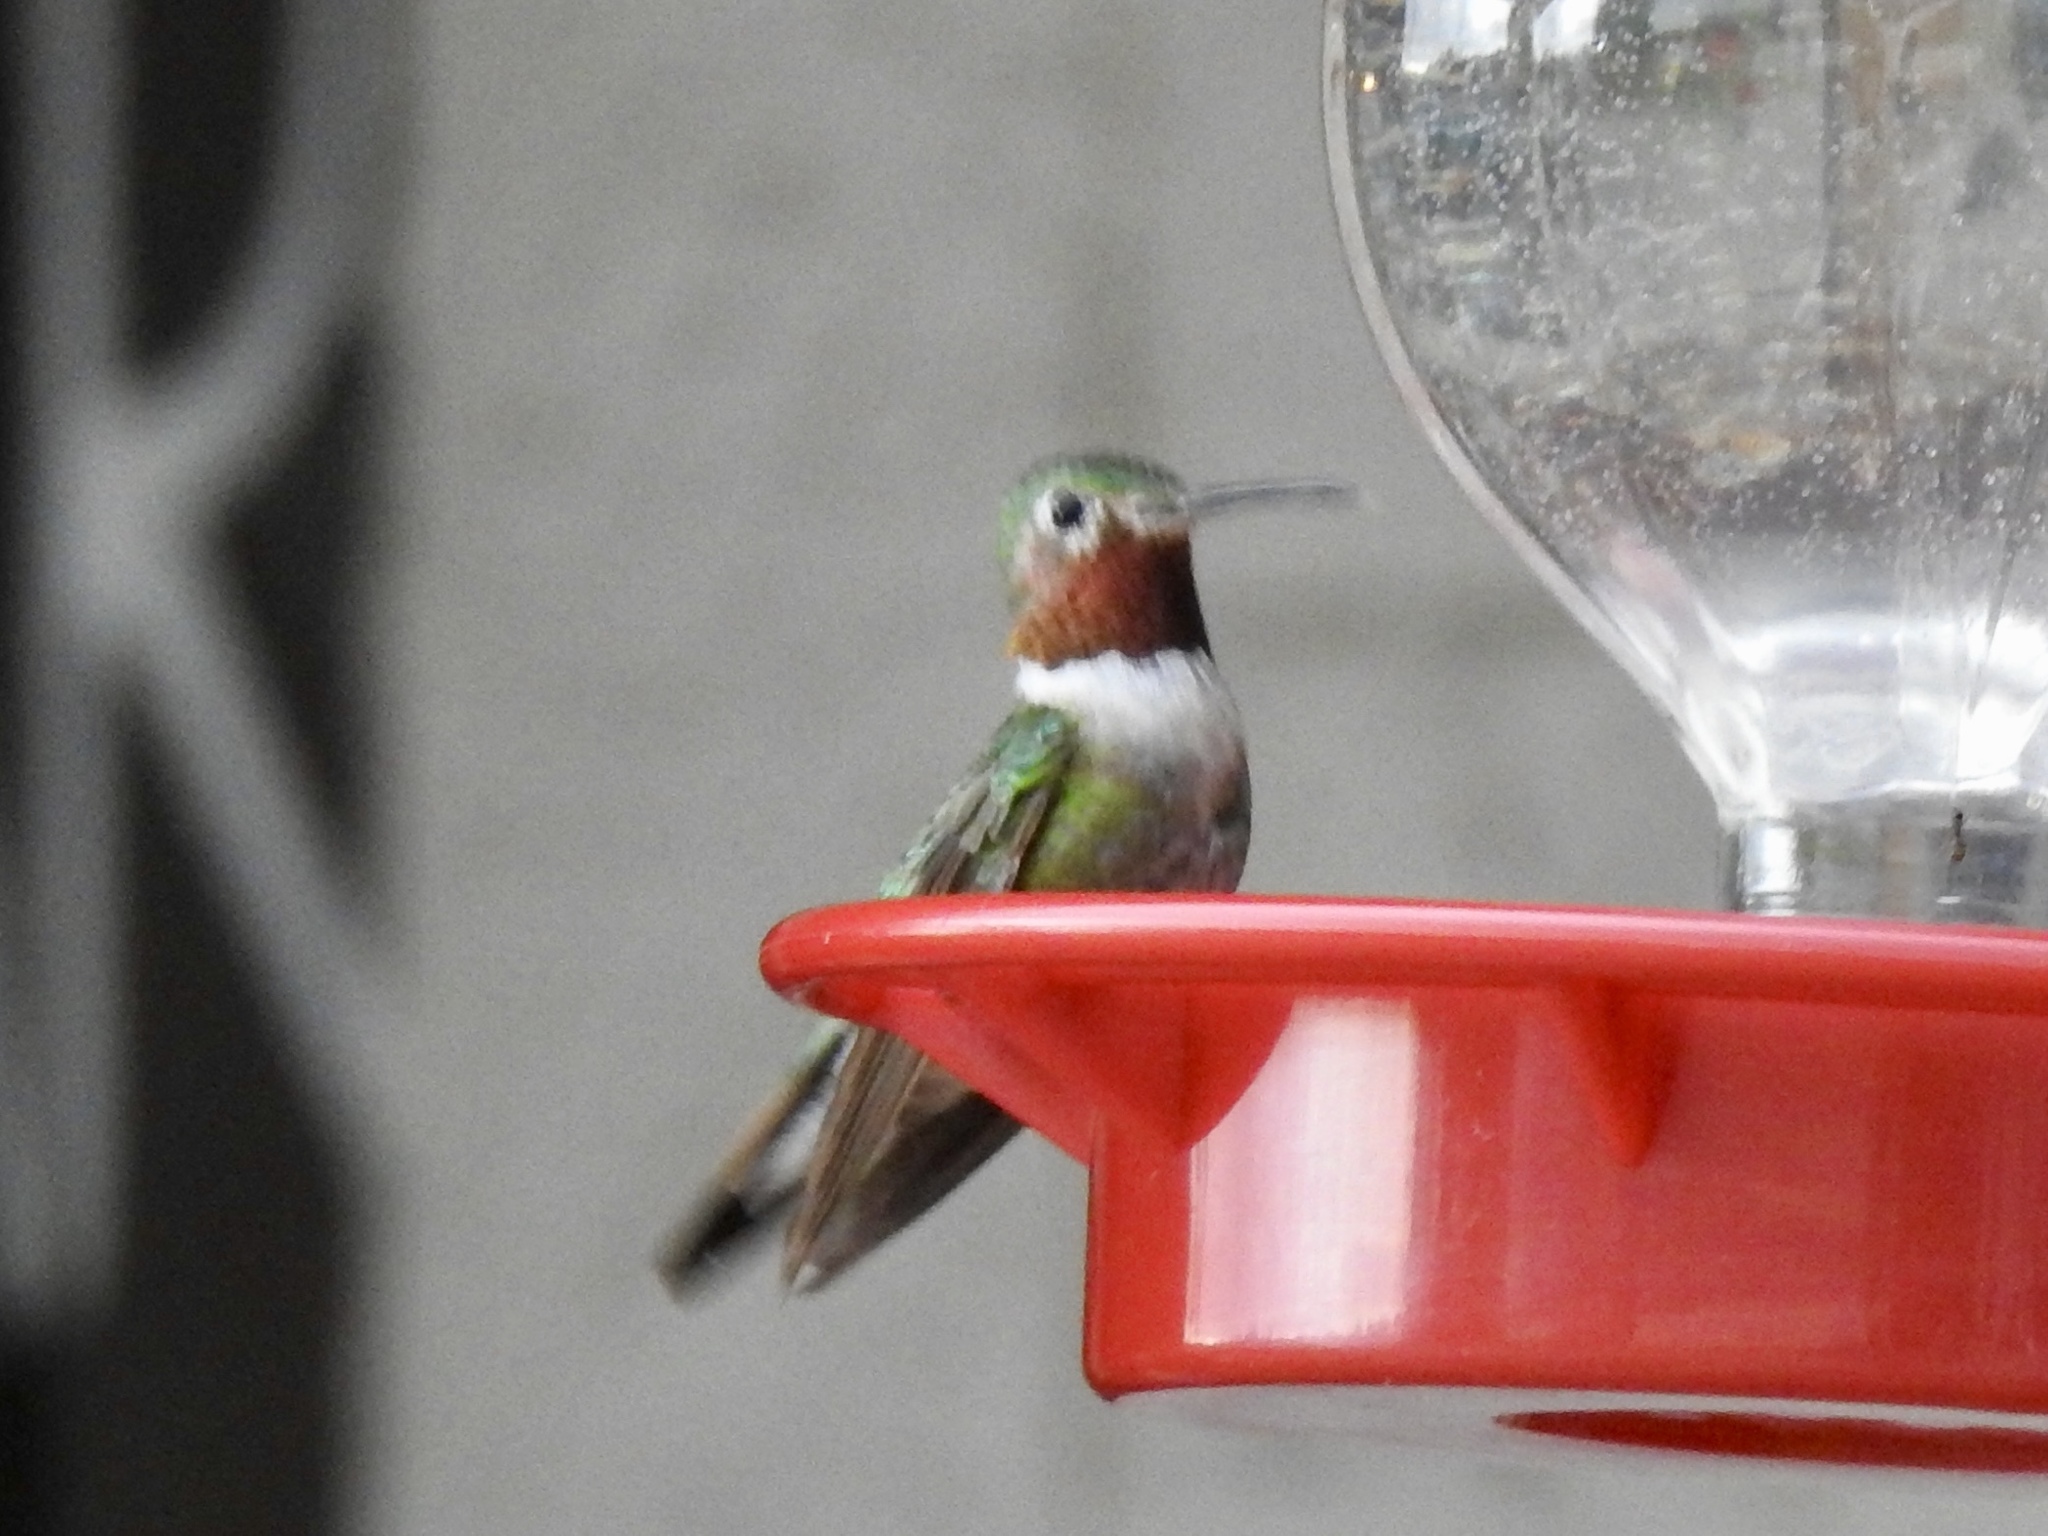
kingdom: Animalia
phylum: Chordata
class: Aves
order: Apodiformes
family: Trochilidae
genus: Selasphorus
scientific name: Selasphorus platycercus
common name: Broad-tailed hummingbird
